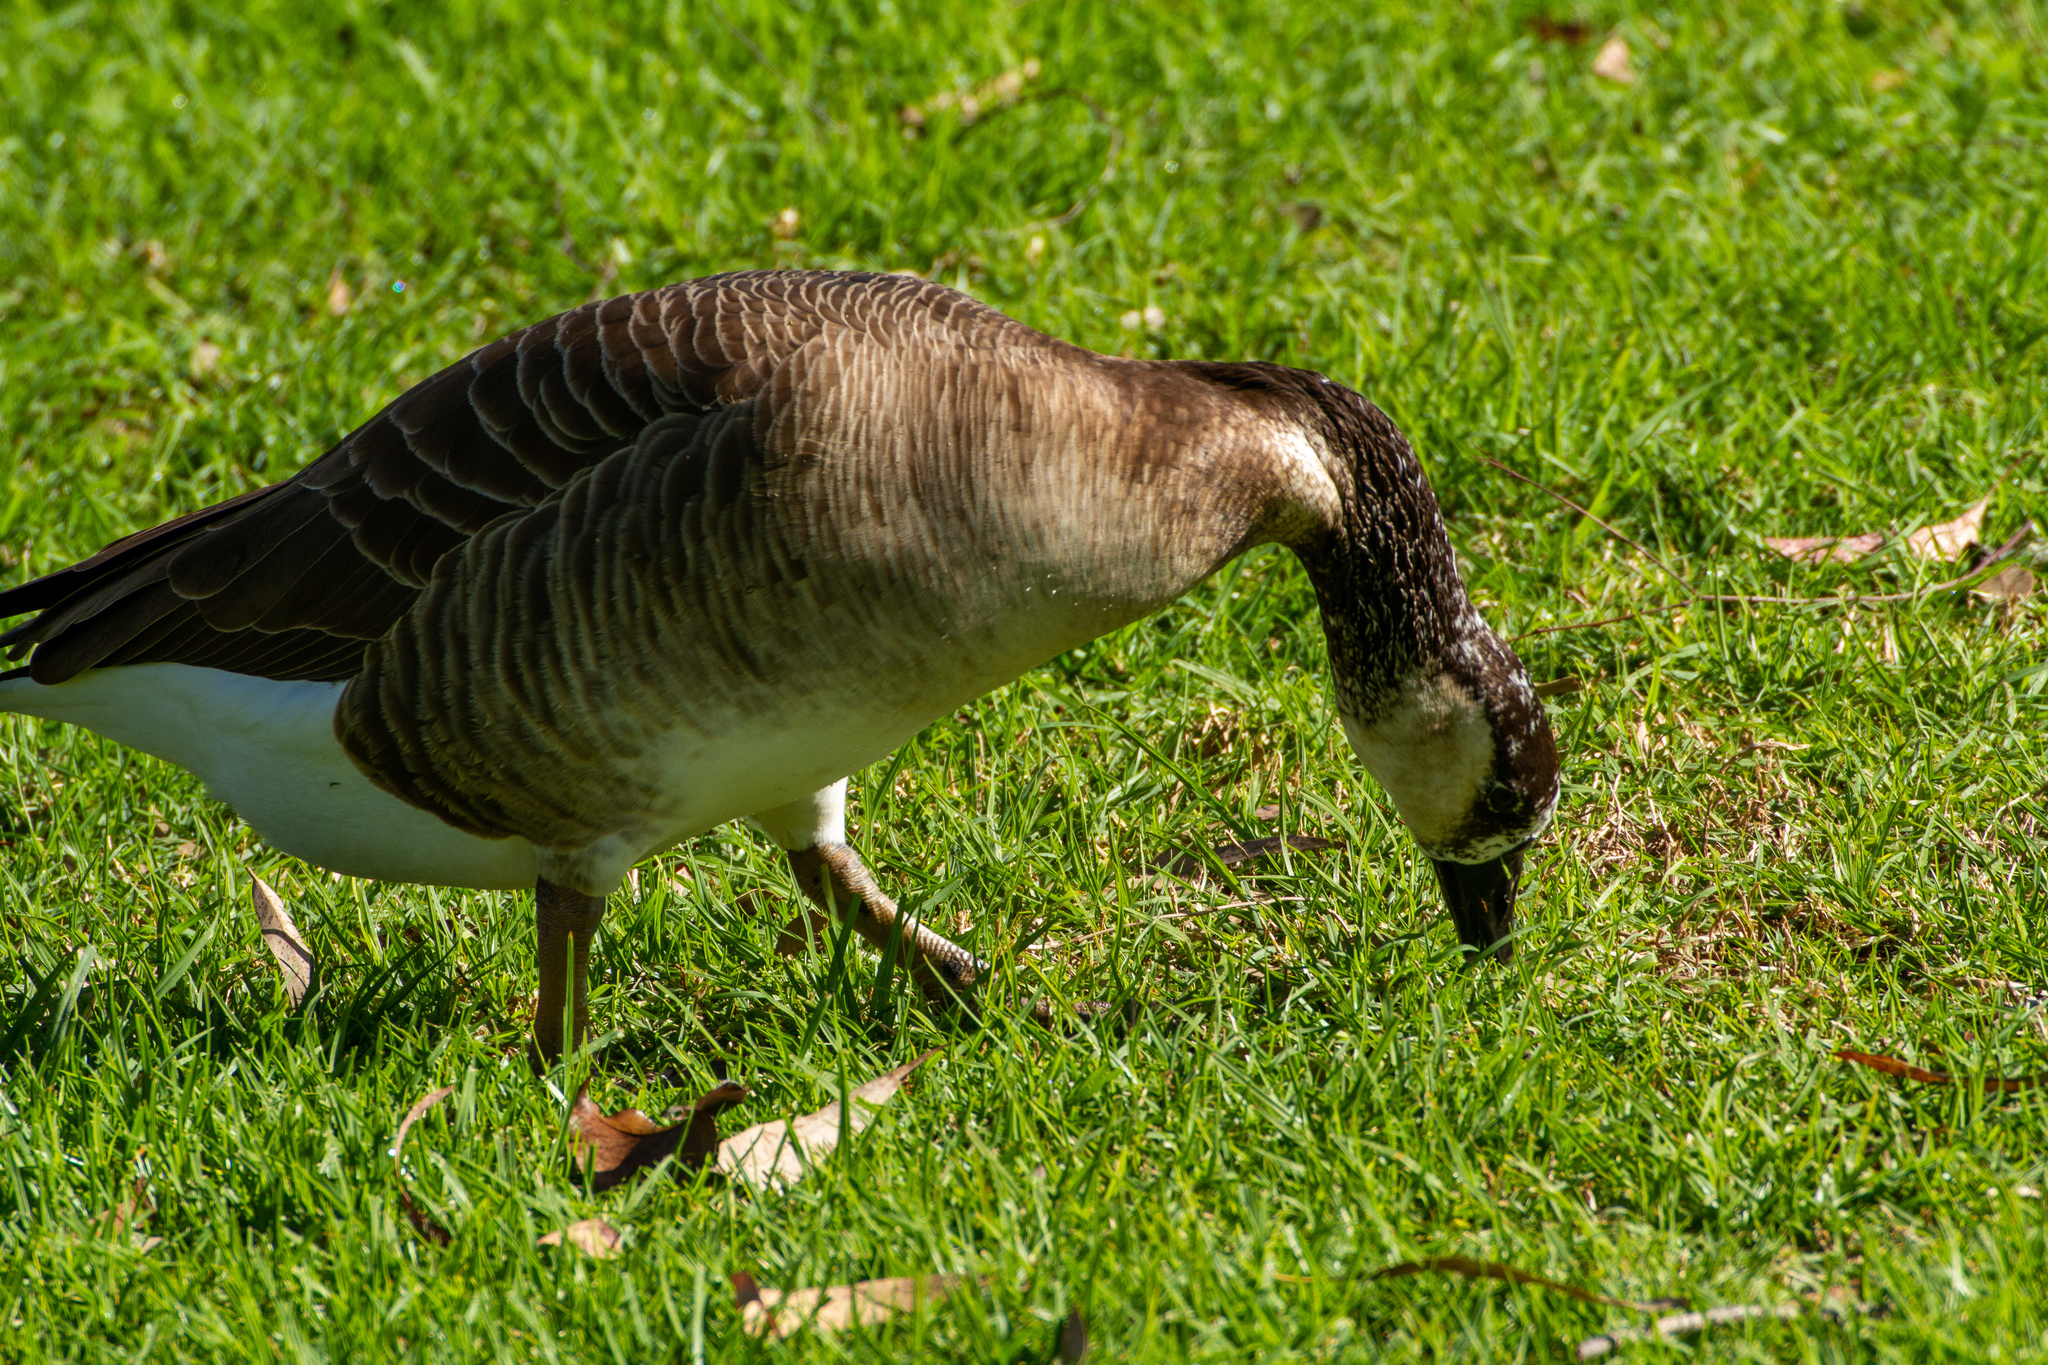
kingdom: Animalia
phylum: Chordata
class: Aves
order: Anseriformes
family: Anatidae
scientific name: Anatidae
